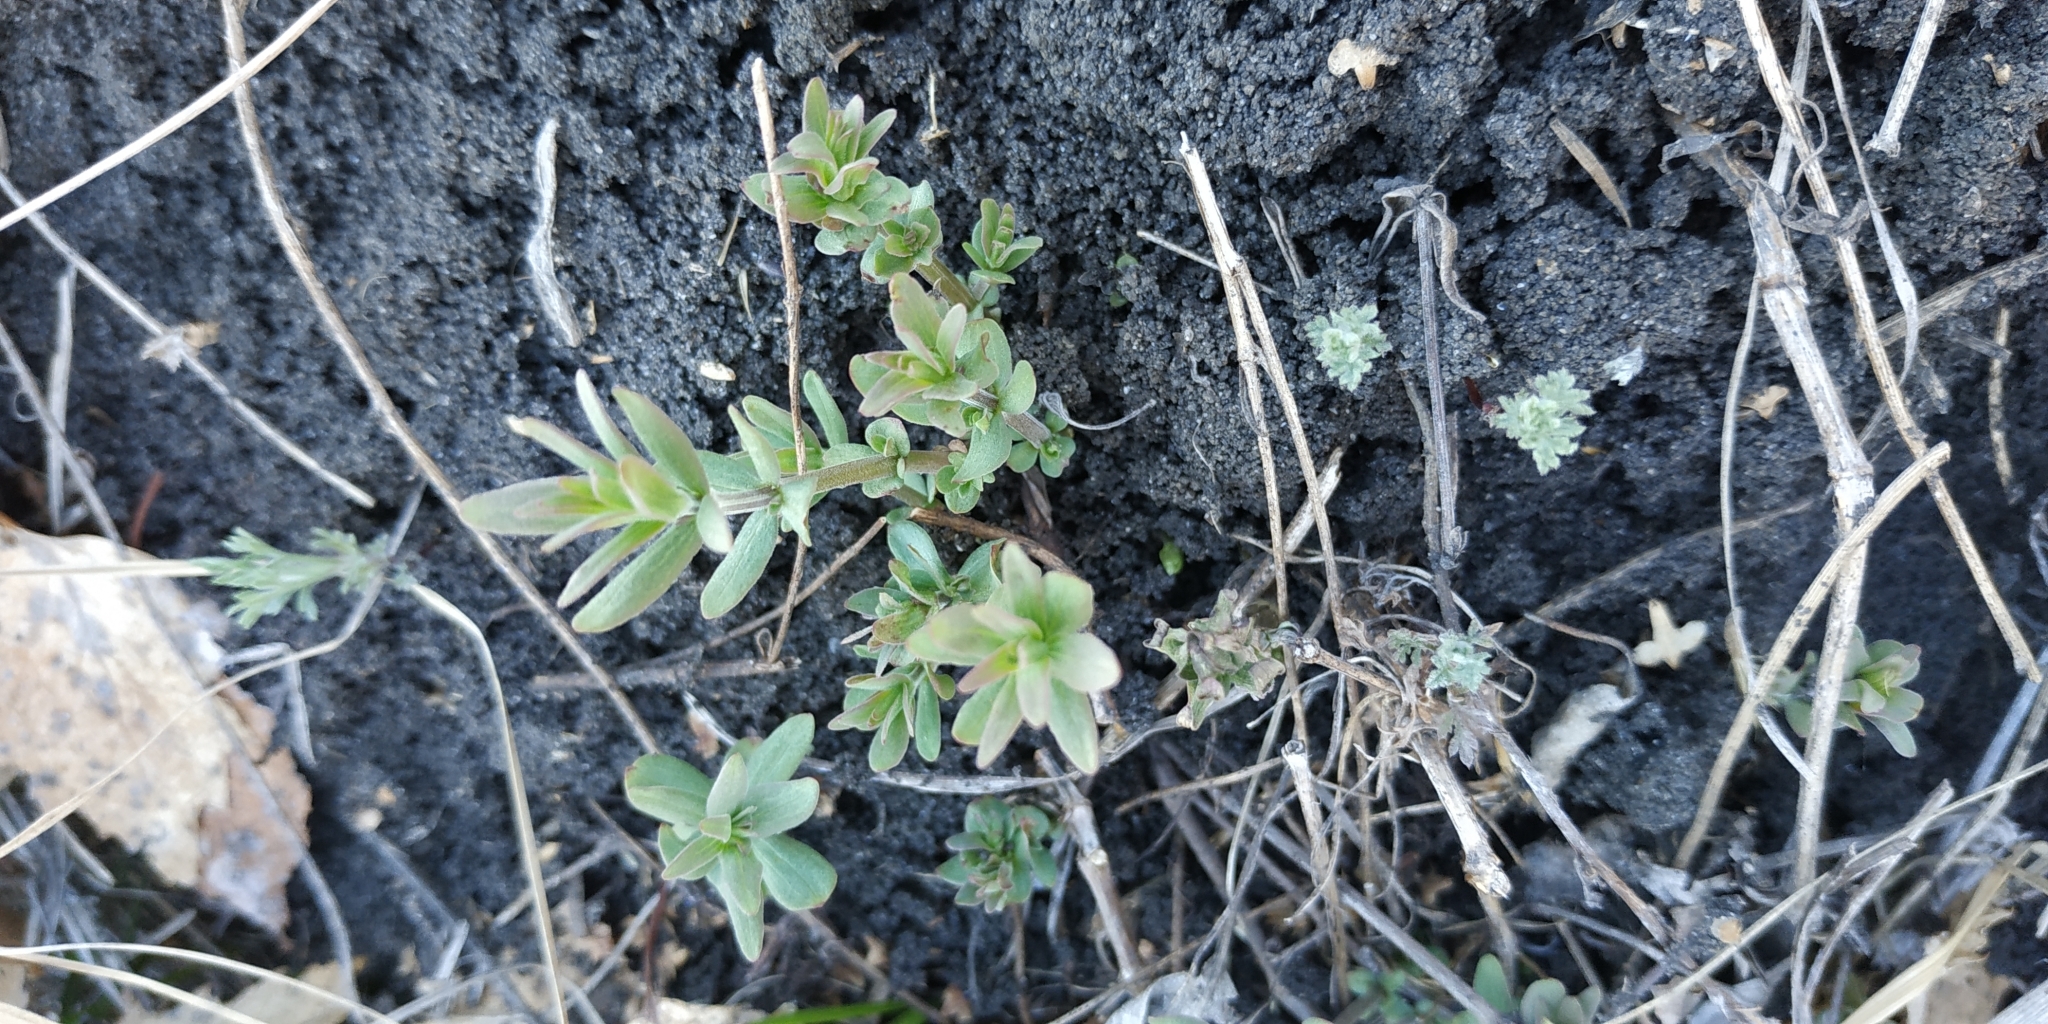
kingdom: Plantae
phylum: Tracheophyta
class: Magnoliopsida
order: Gentianales
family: Rubiaceae
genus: Galium
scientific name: Galium mollugo
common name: Hedge bedstraw
